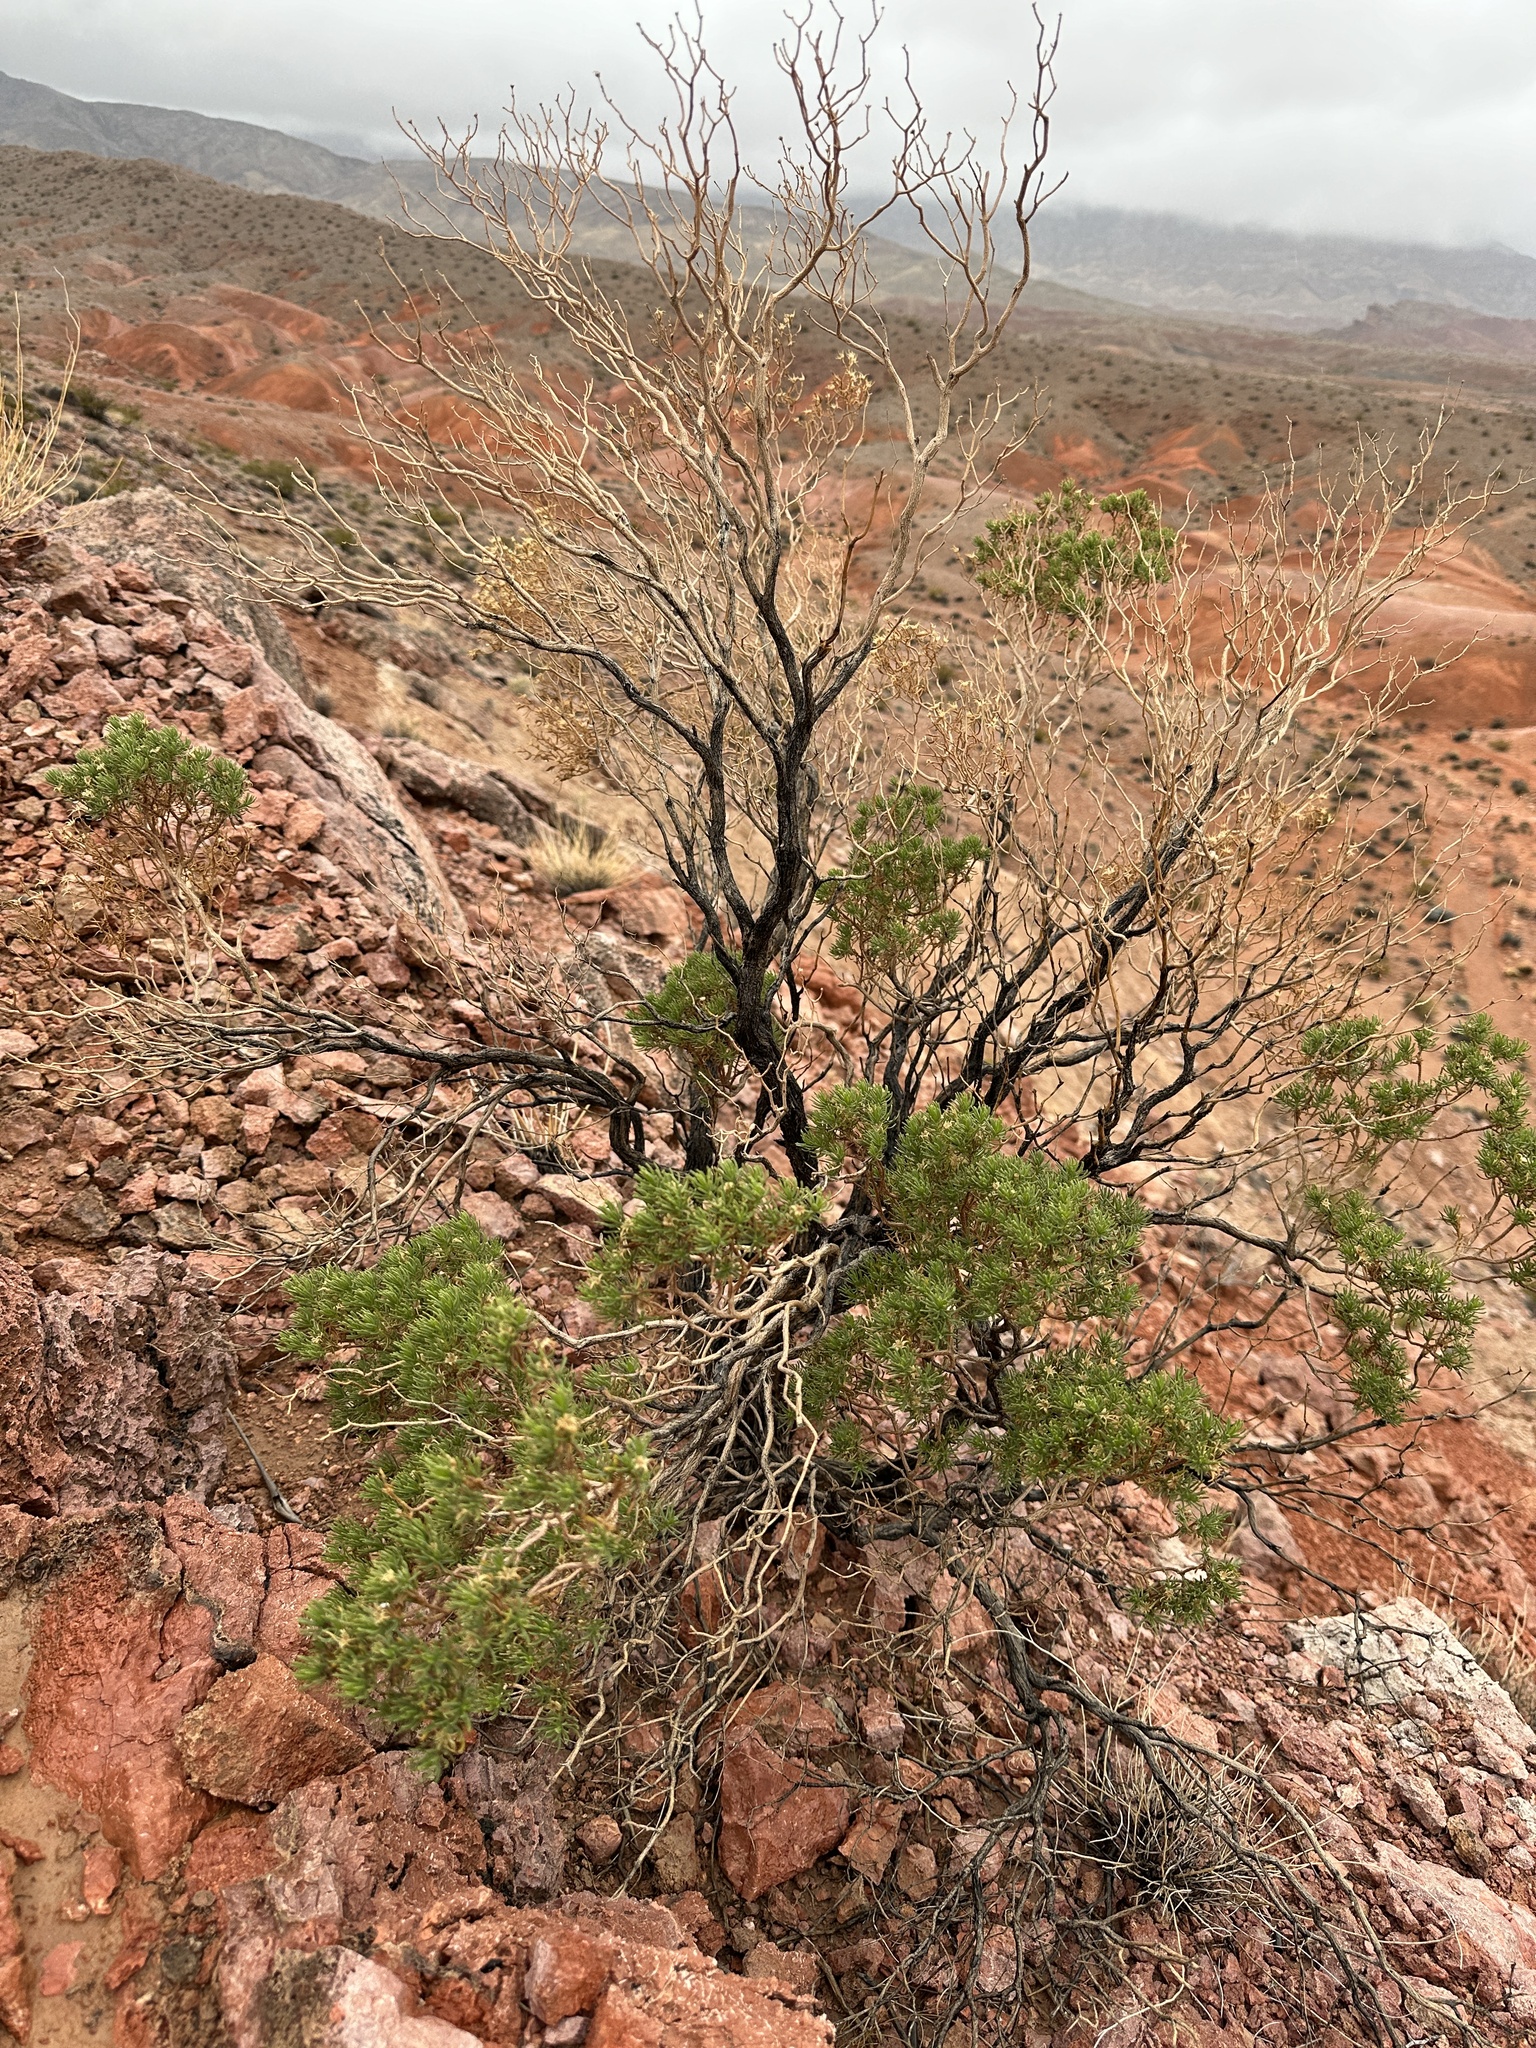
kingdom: Plantae
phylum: Tracheophyta
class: Magnoliopsida
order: Asterales
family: Asteraceae
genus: Peucephyllum
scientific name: Peucephyllum schottii
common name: Pygmy-cedar
